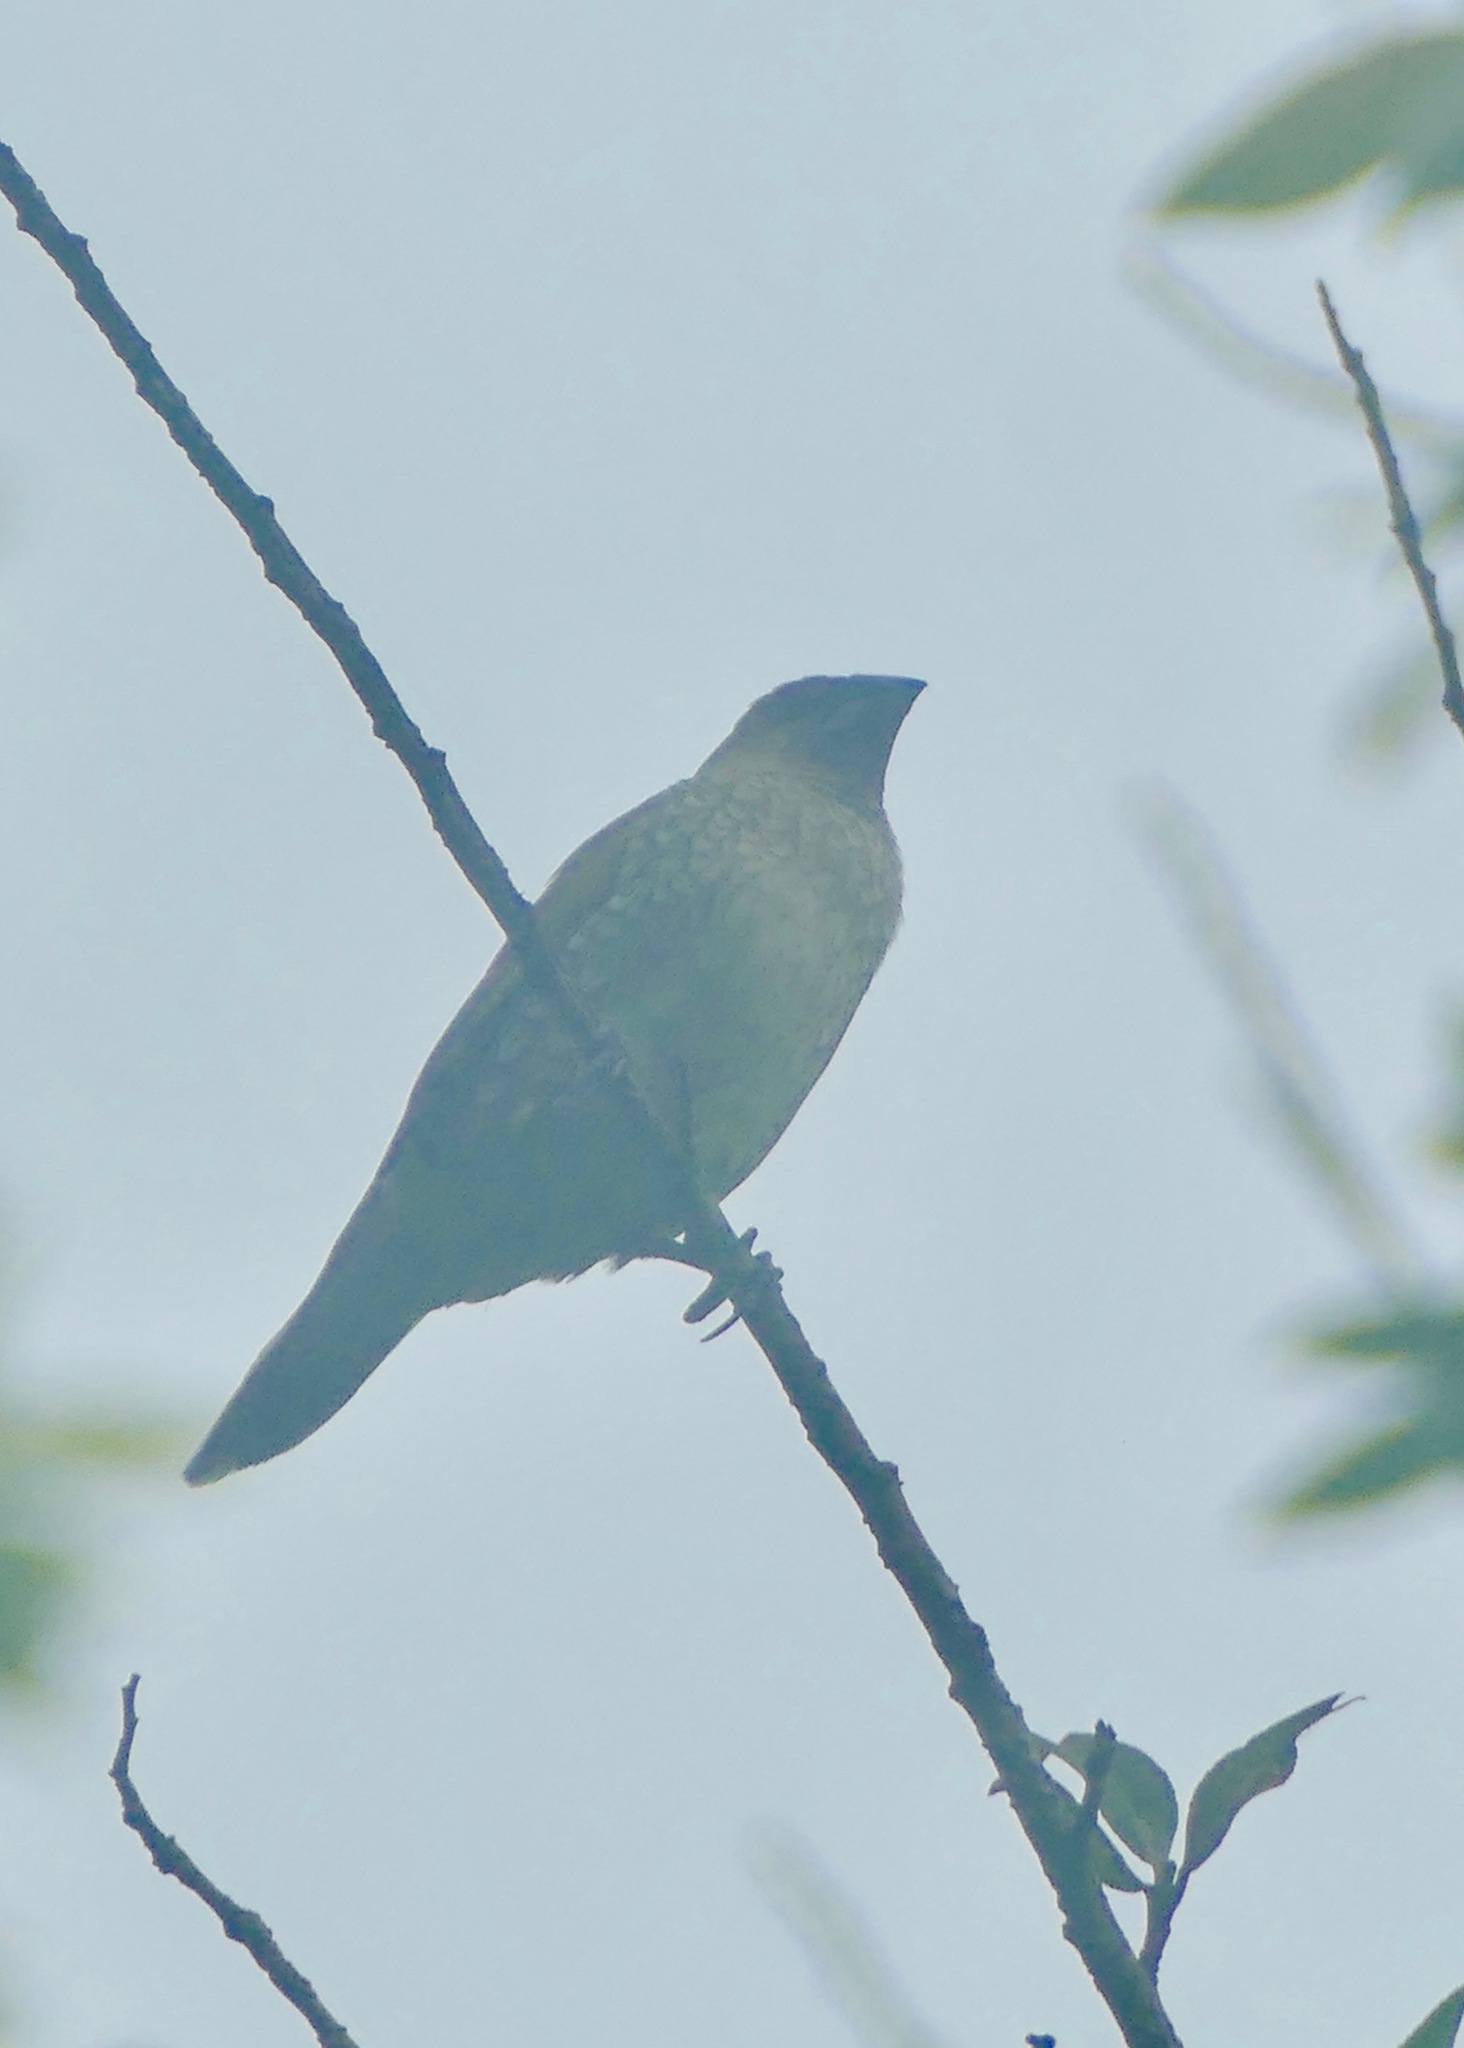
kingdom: Animalia
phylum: Chordata
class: Aves
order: Passeriformes
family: Estrildidae
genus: Lonchura
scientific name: Lonchura punctulata
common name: Scaly-breasted munia
